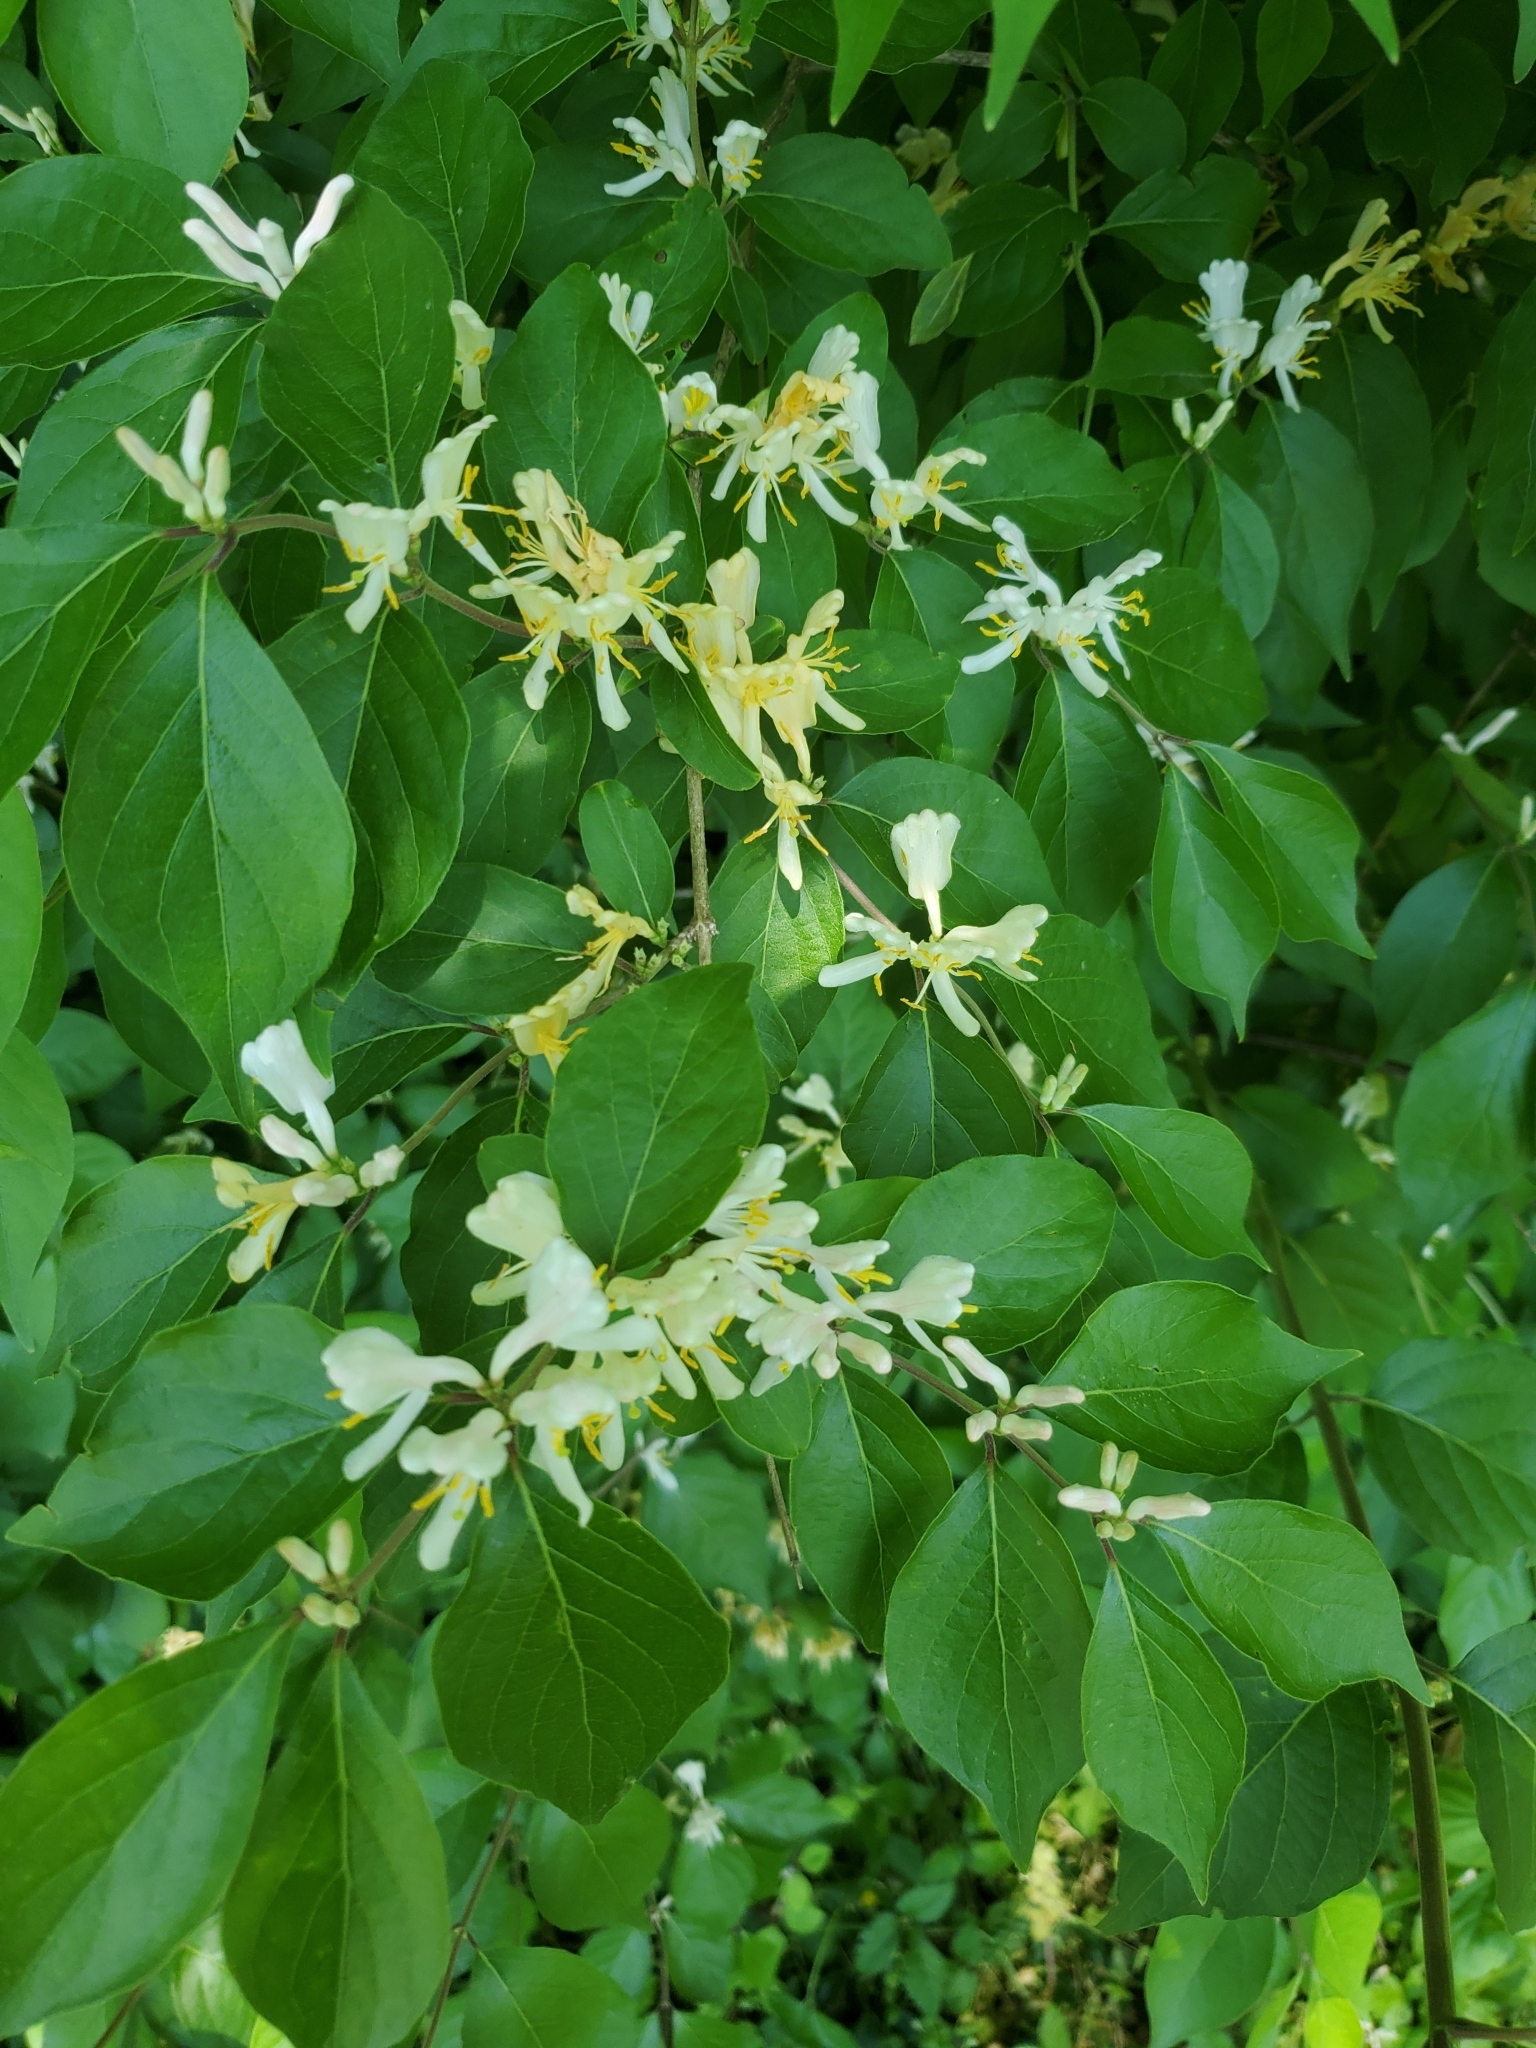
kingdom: Plantae
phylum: Tracheophyta
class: Magnoliopsida
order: Dipsacales
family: Caprifoliaceae
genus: Lonicera
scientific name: Lonicera maackii
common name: Amur honeysuckle
